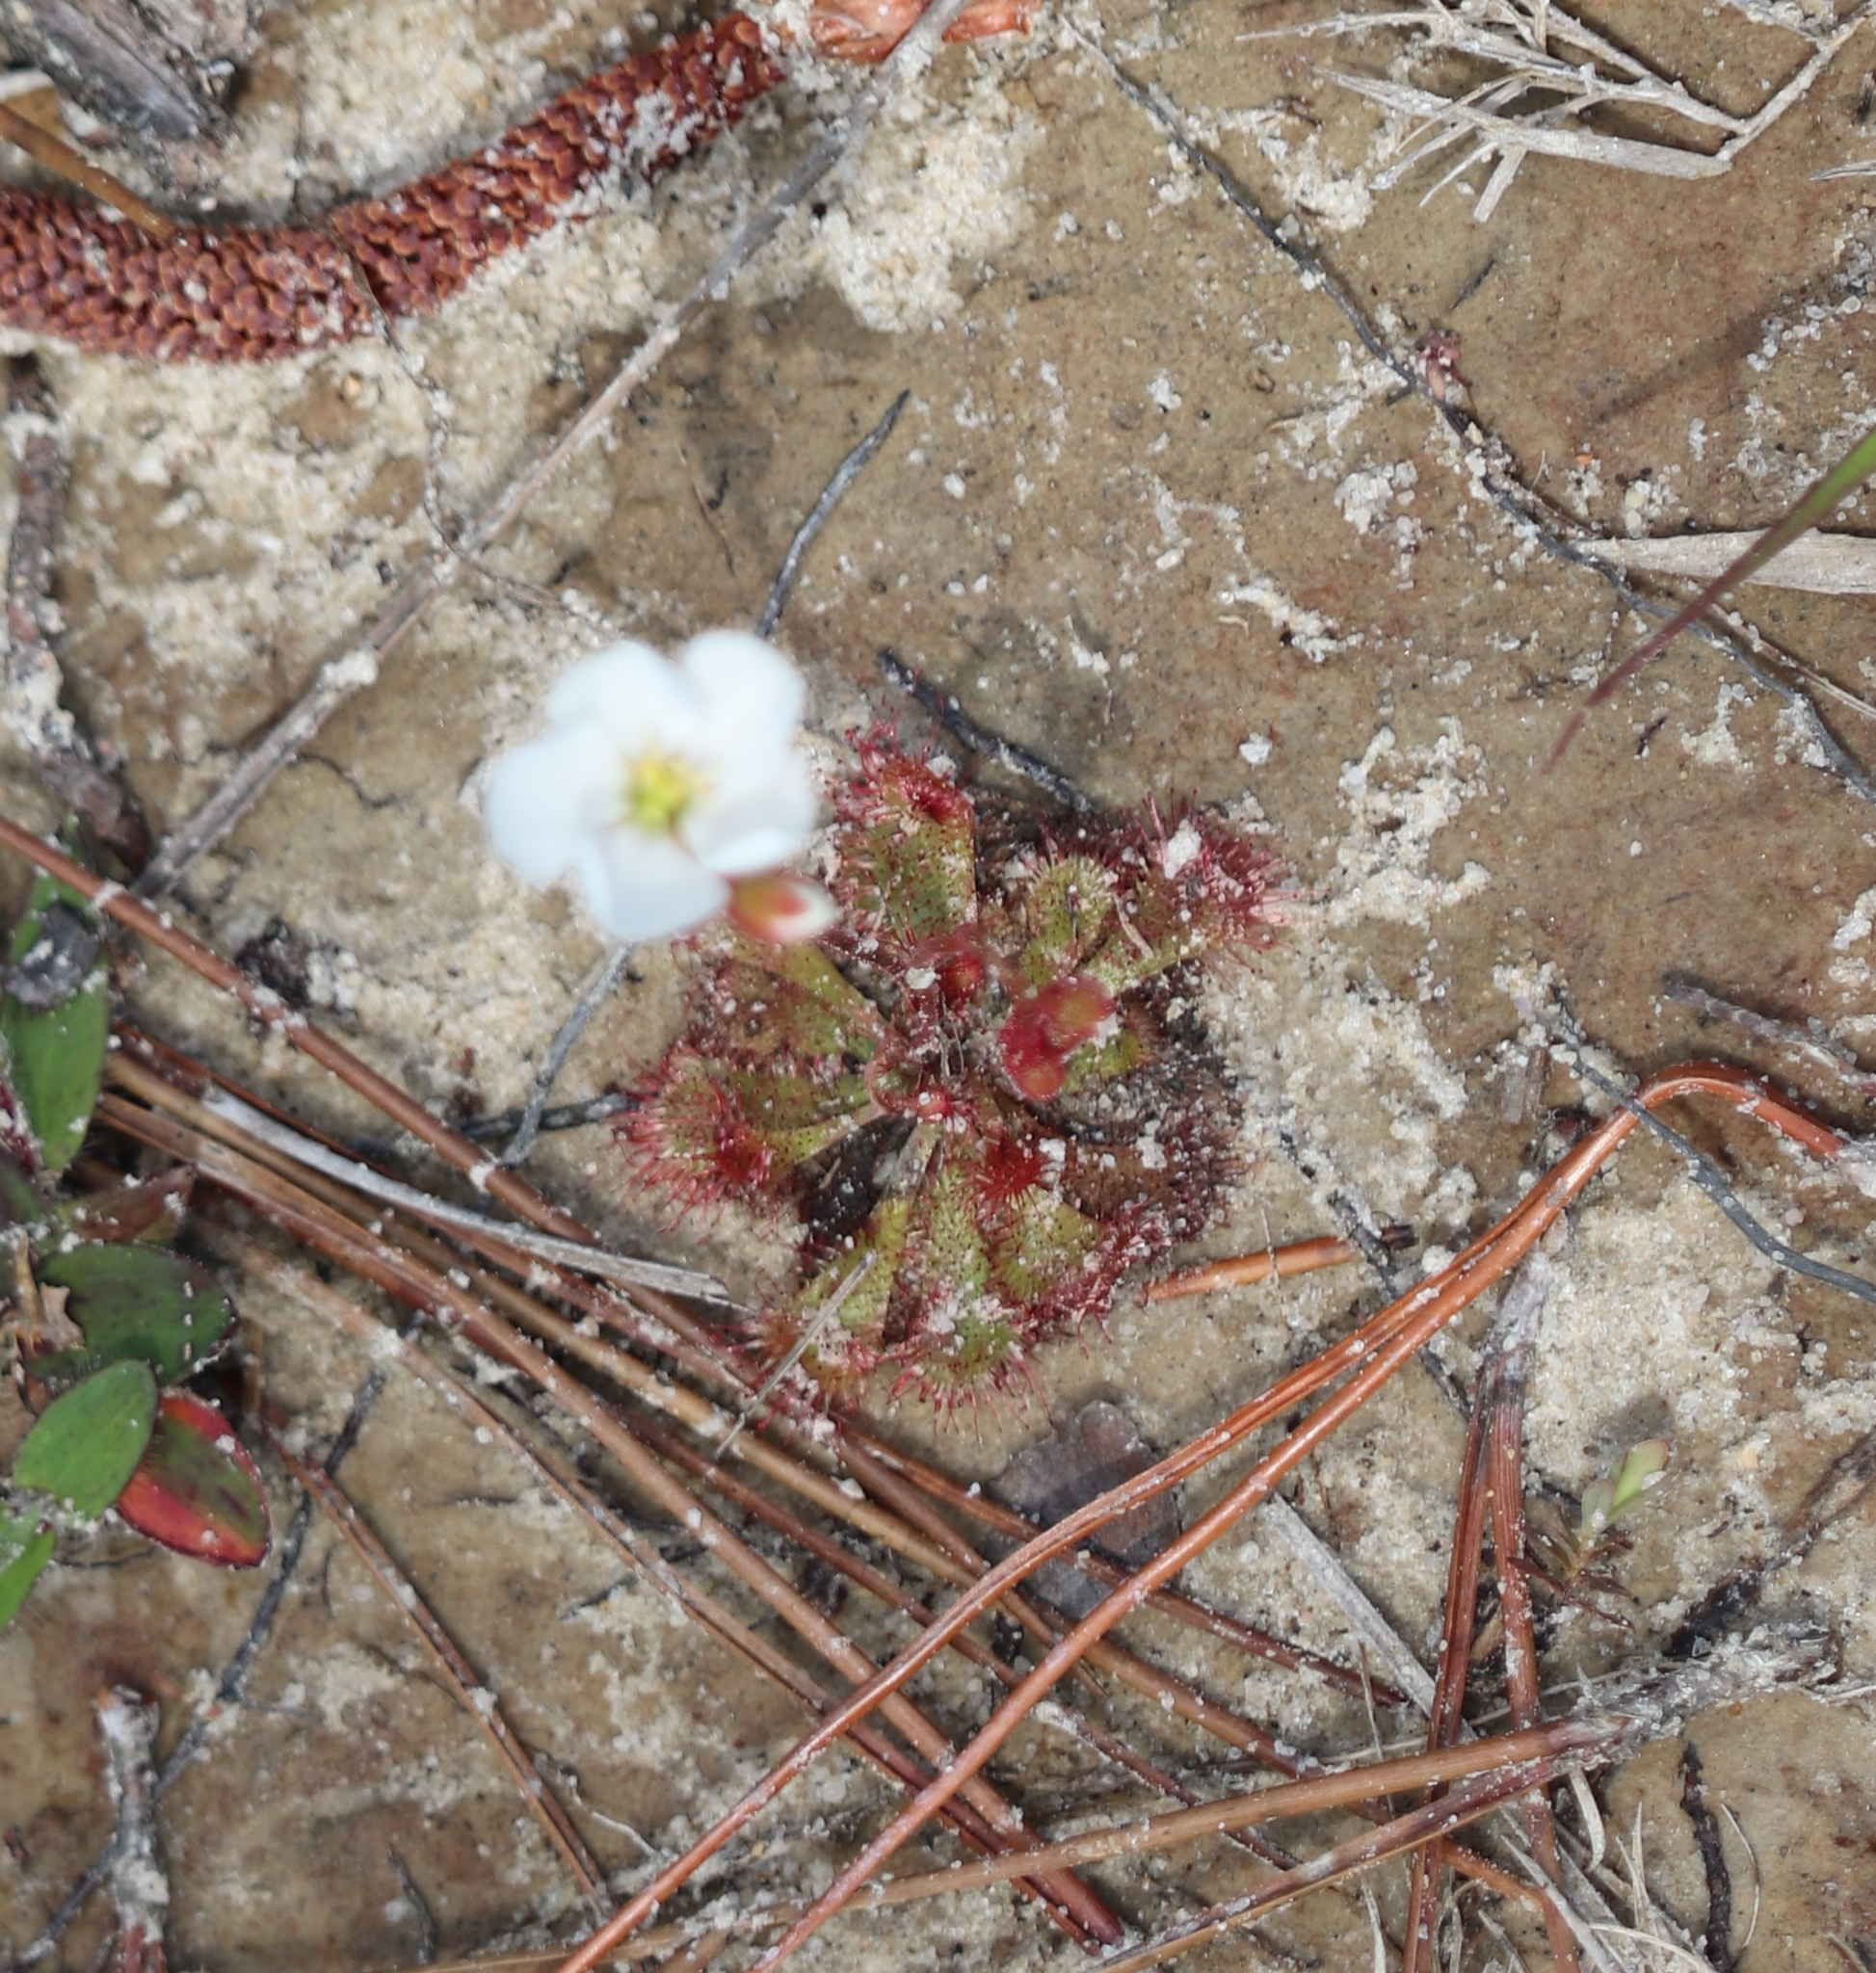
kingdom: Plantae
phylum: Tracheophyta
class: Magnoliopsida
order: Caryophyllales
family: Droseraceae
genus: Drosera
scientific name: Drosera brevifolia
